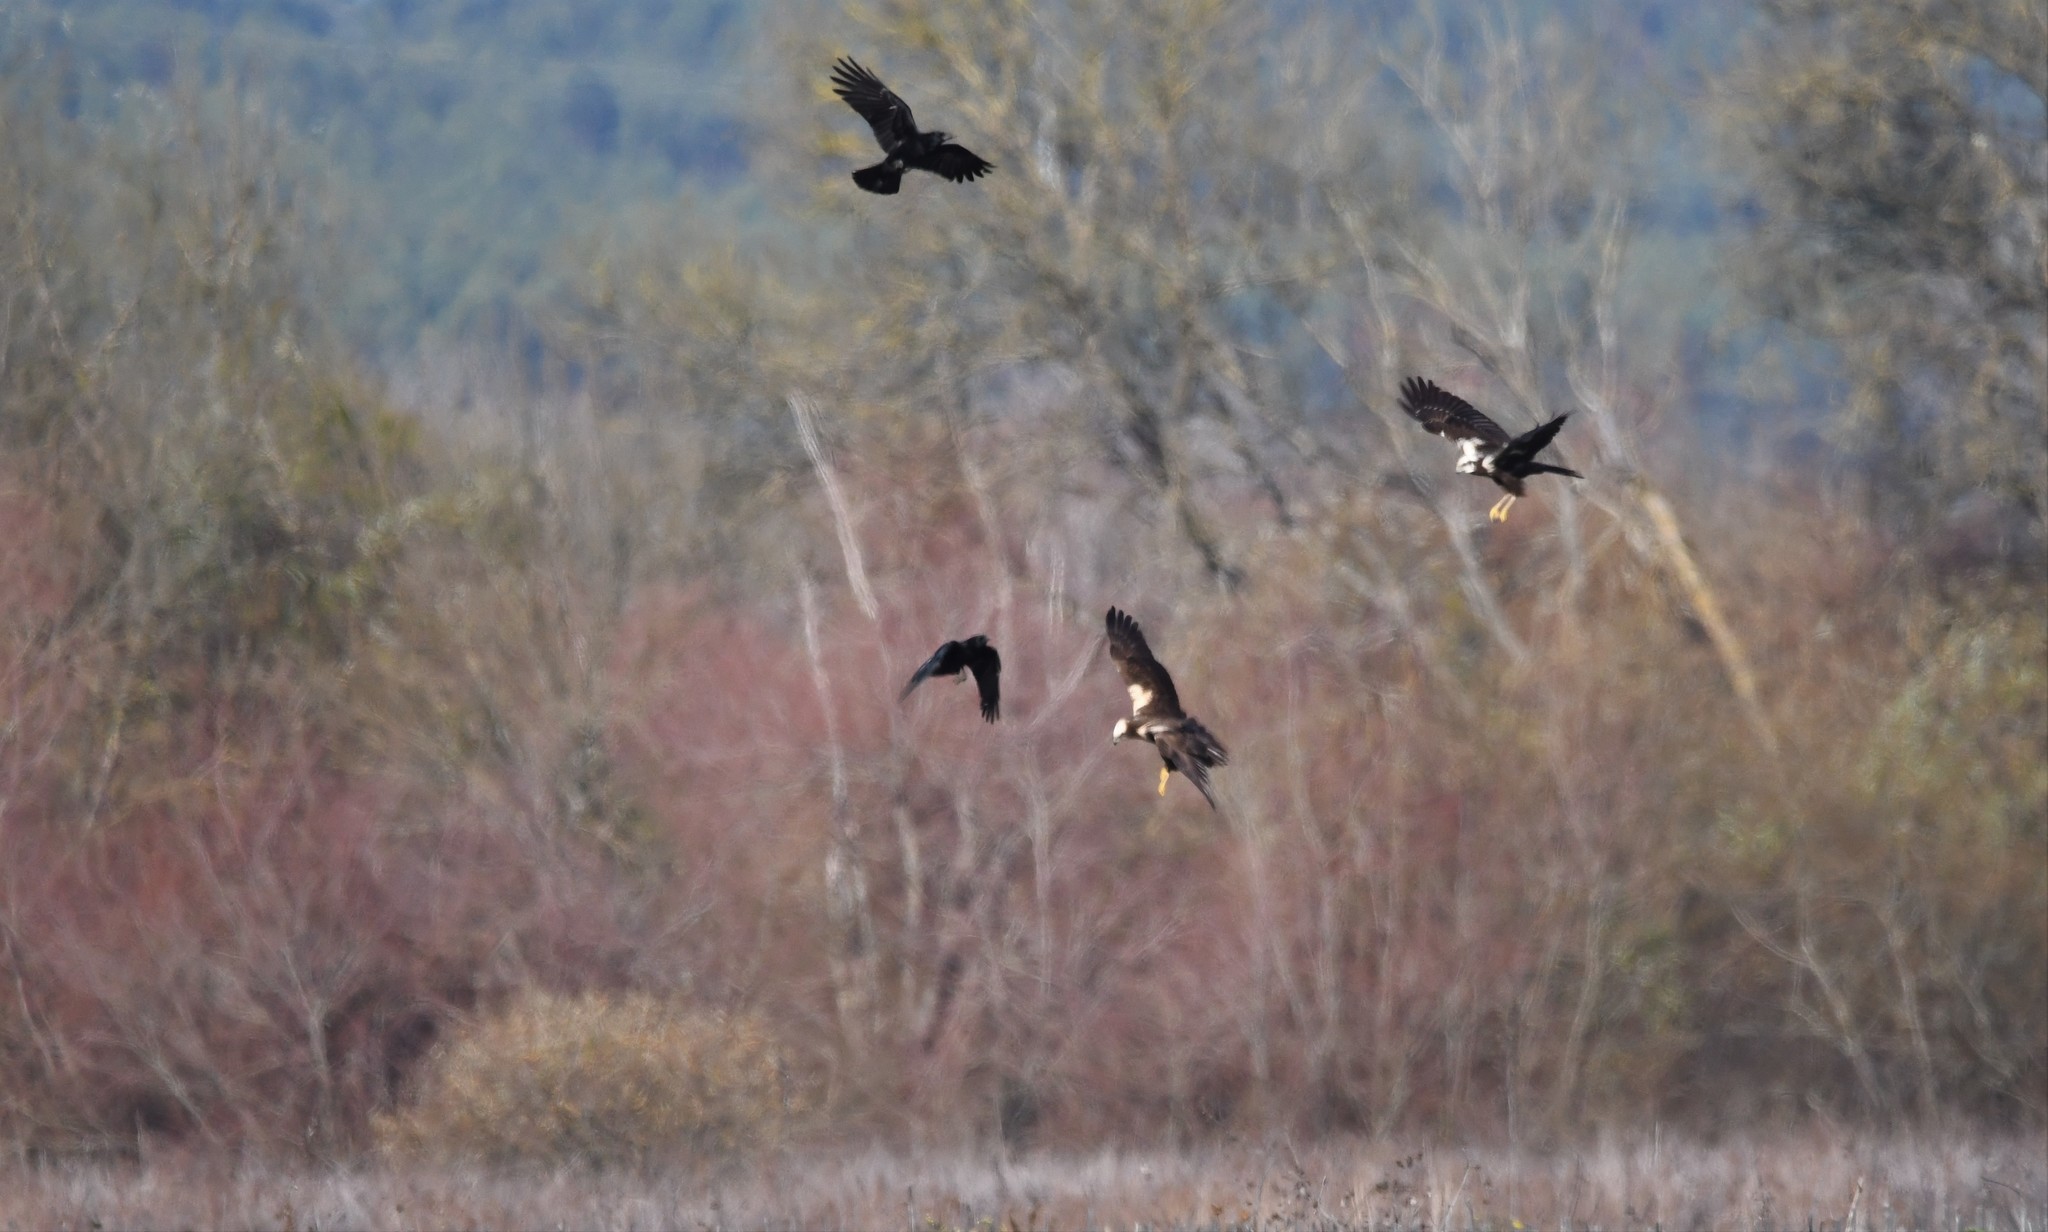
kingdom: Animalia
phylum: Chordata
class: Aves
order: Accipitriformes
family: Accipitridae
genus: Circus
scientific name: Circus aeruginosus
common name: Western marsh harrier
